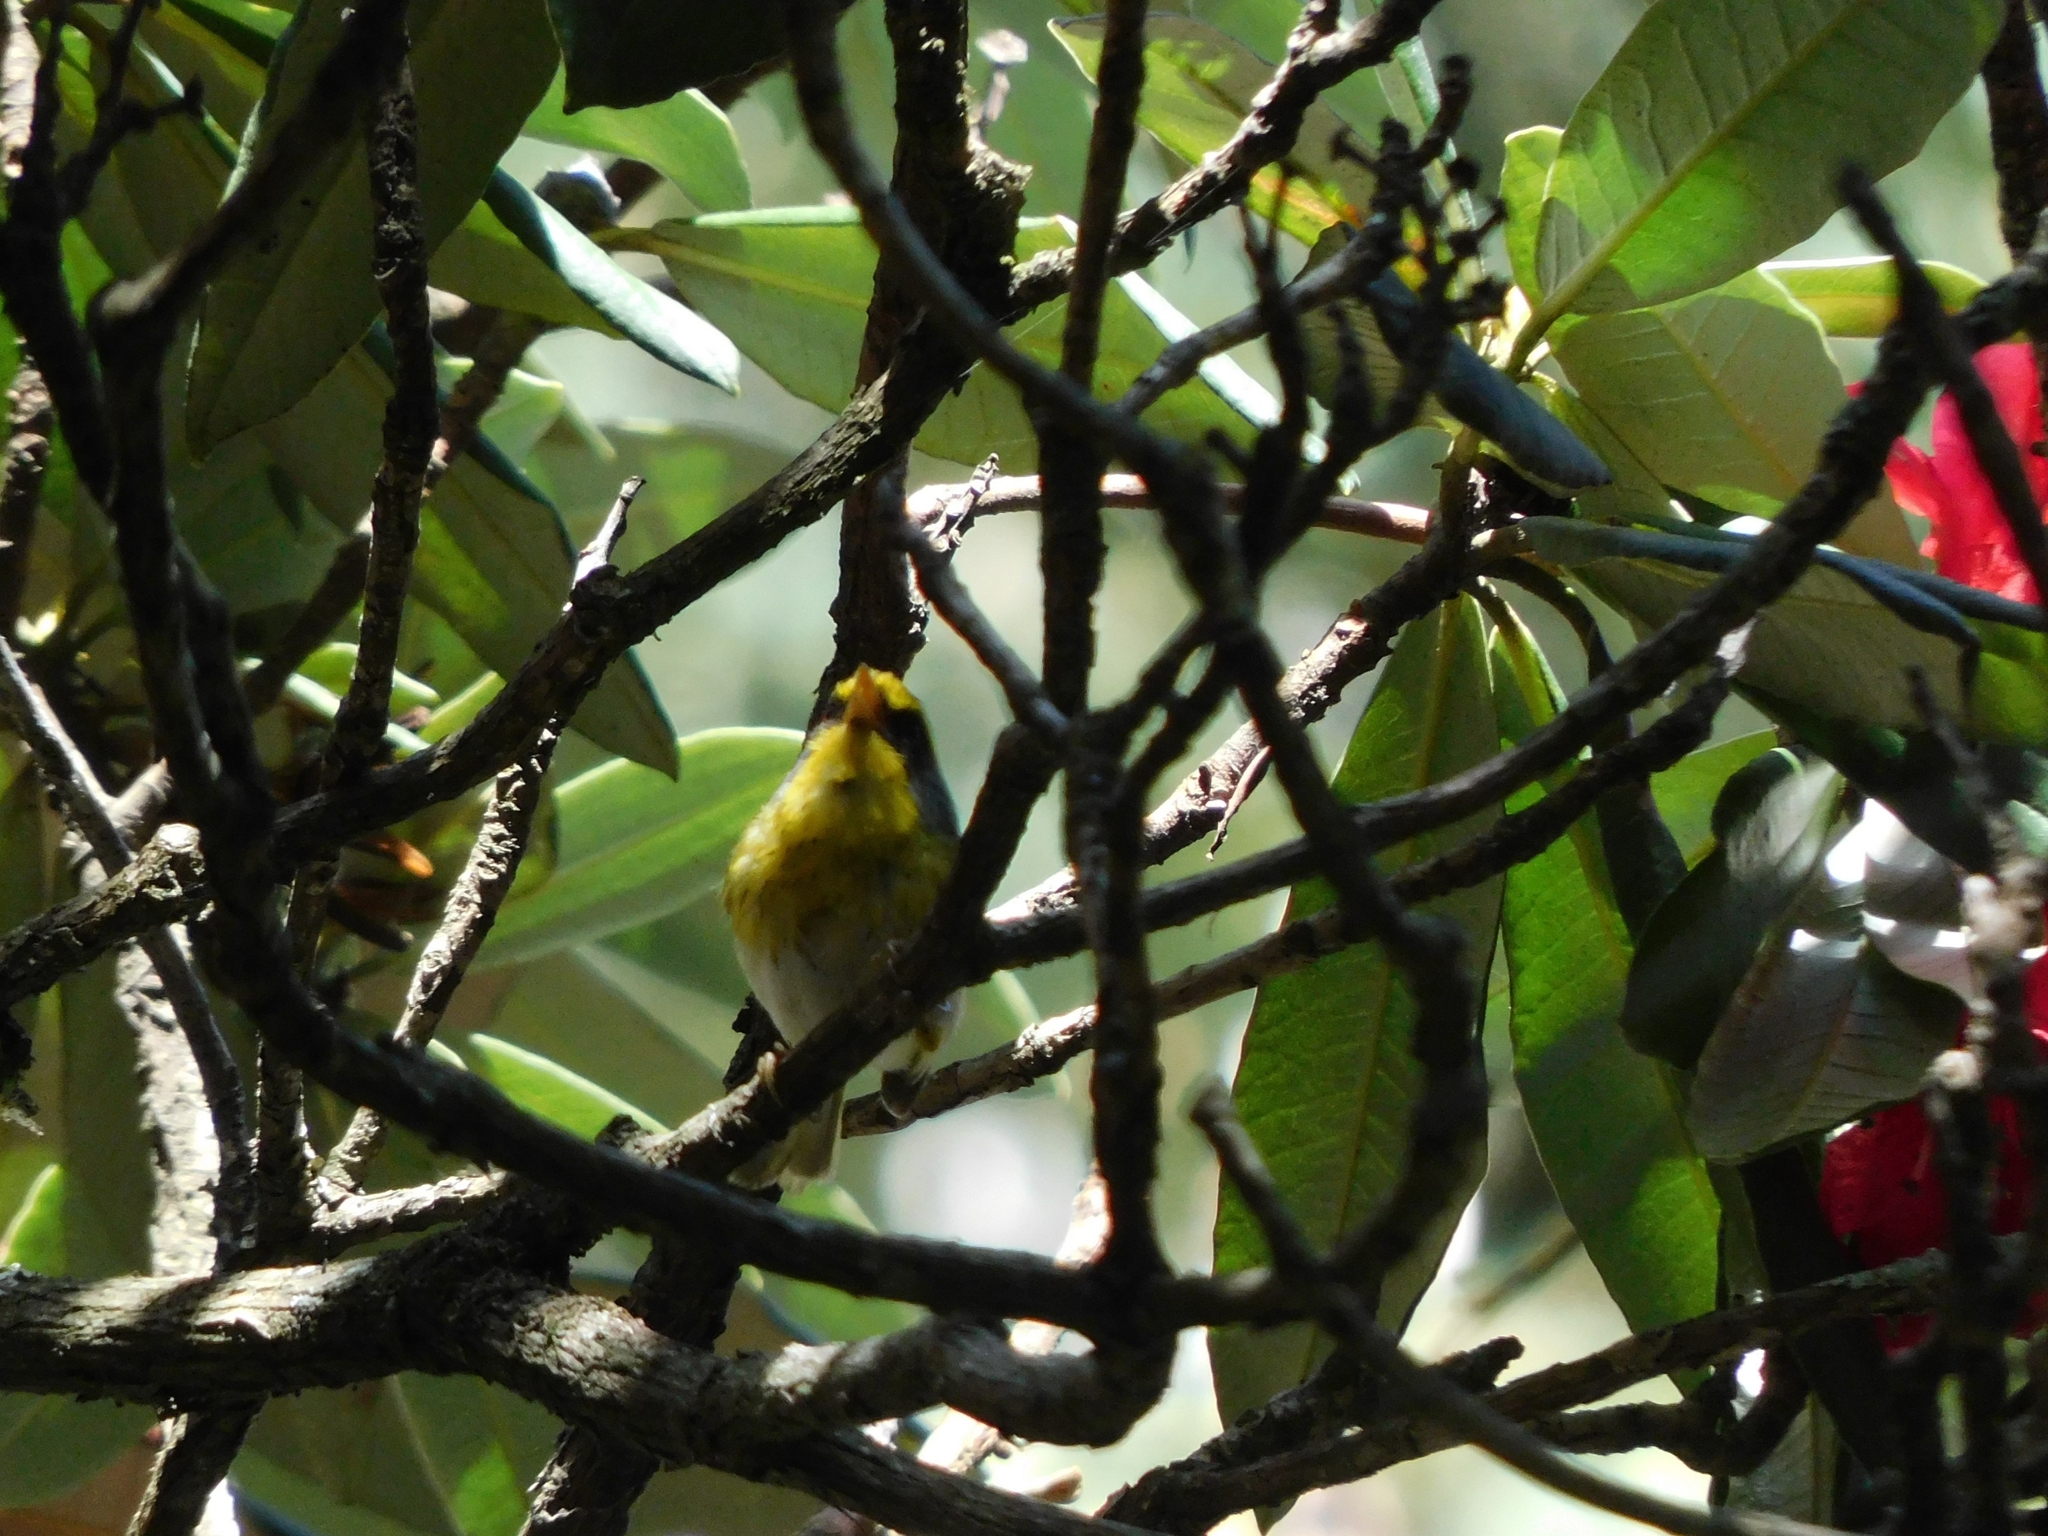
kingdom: Animalia
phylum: Chordata
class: Aves
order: Passeriformes
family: Cettiidae
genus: Abroscopus
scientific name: Abroscopus schisticeps
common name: Black-faced warbler
